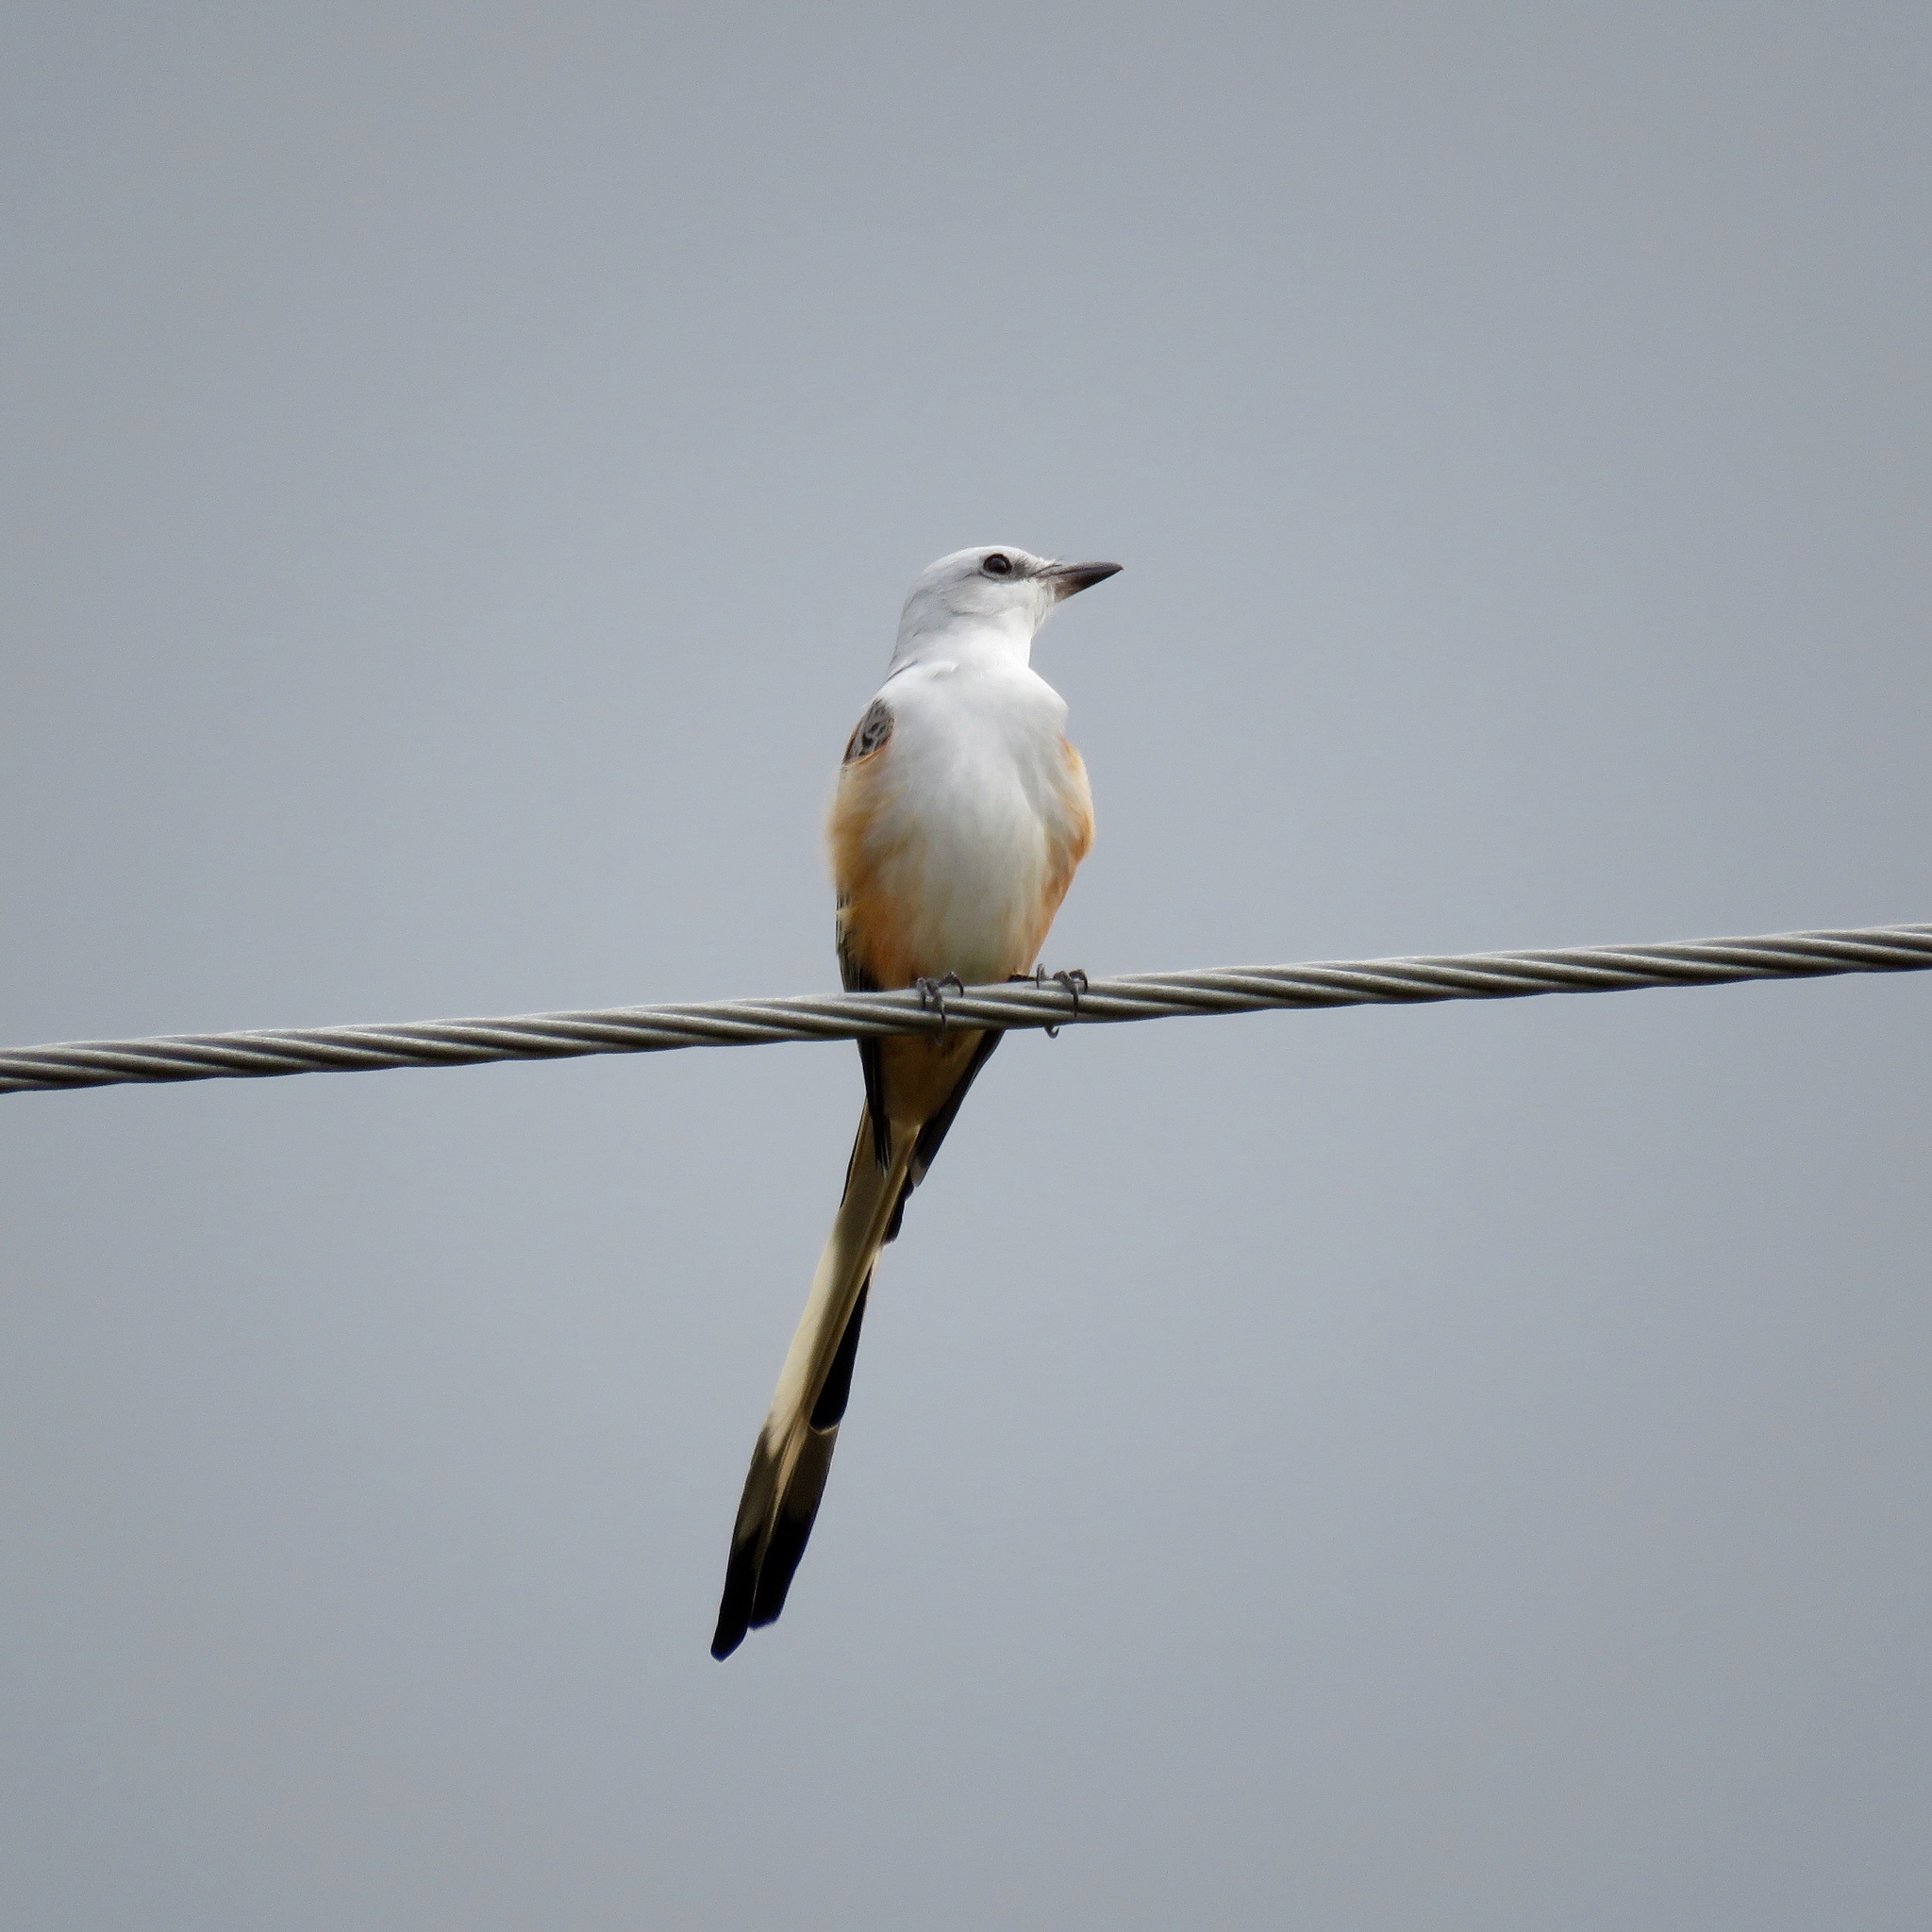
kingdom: Animalia
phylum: Chordata
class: Aves
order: Passeriformes
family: Tyrannidae
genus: Tyrannus
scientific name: Tyrannus forficatus
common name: Scissor-tailed flycatcher
